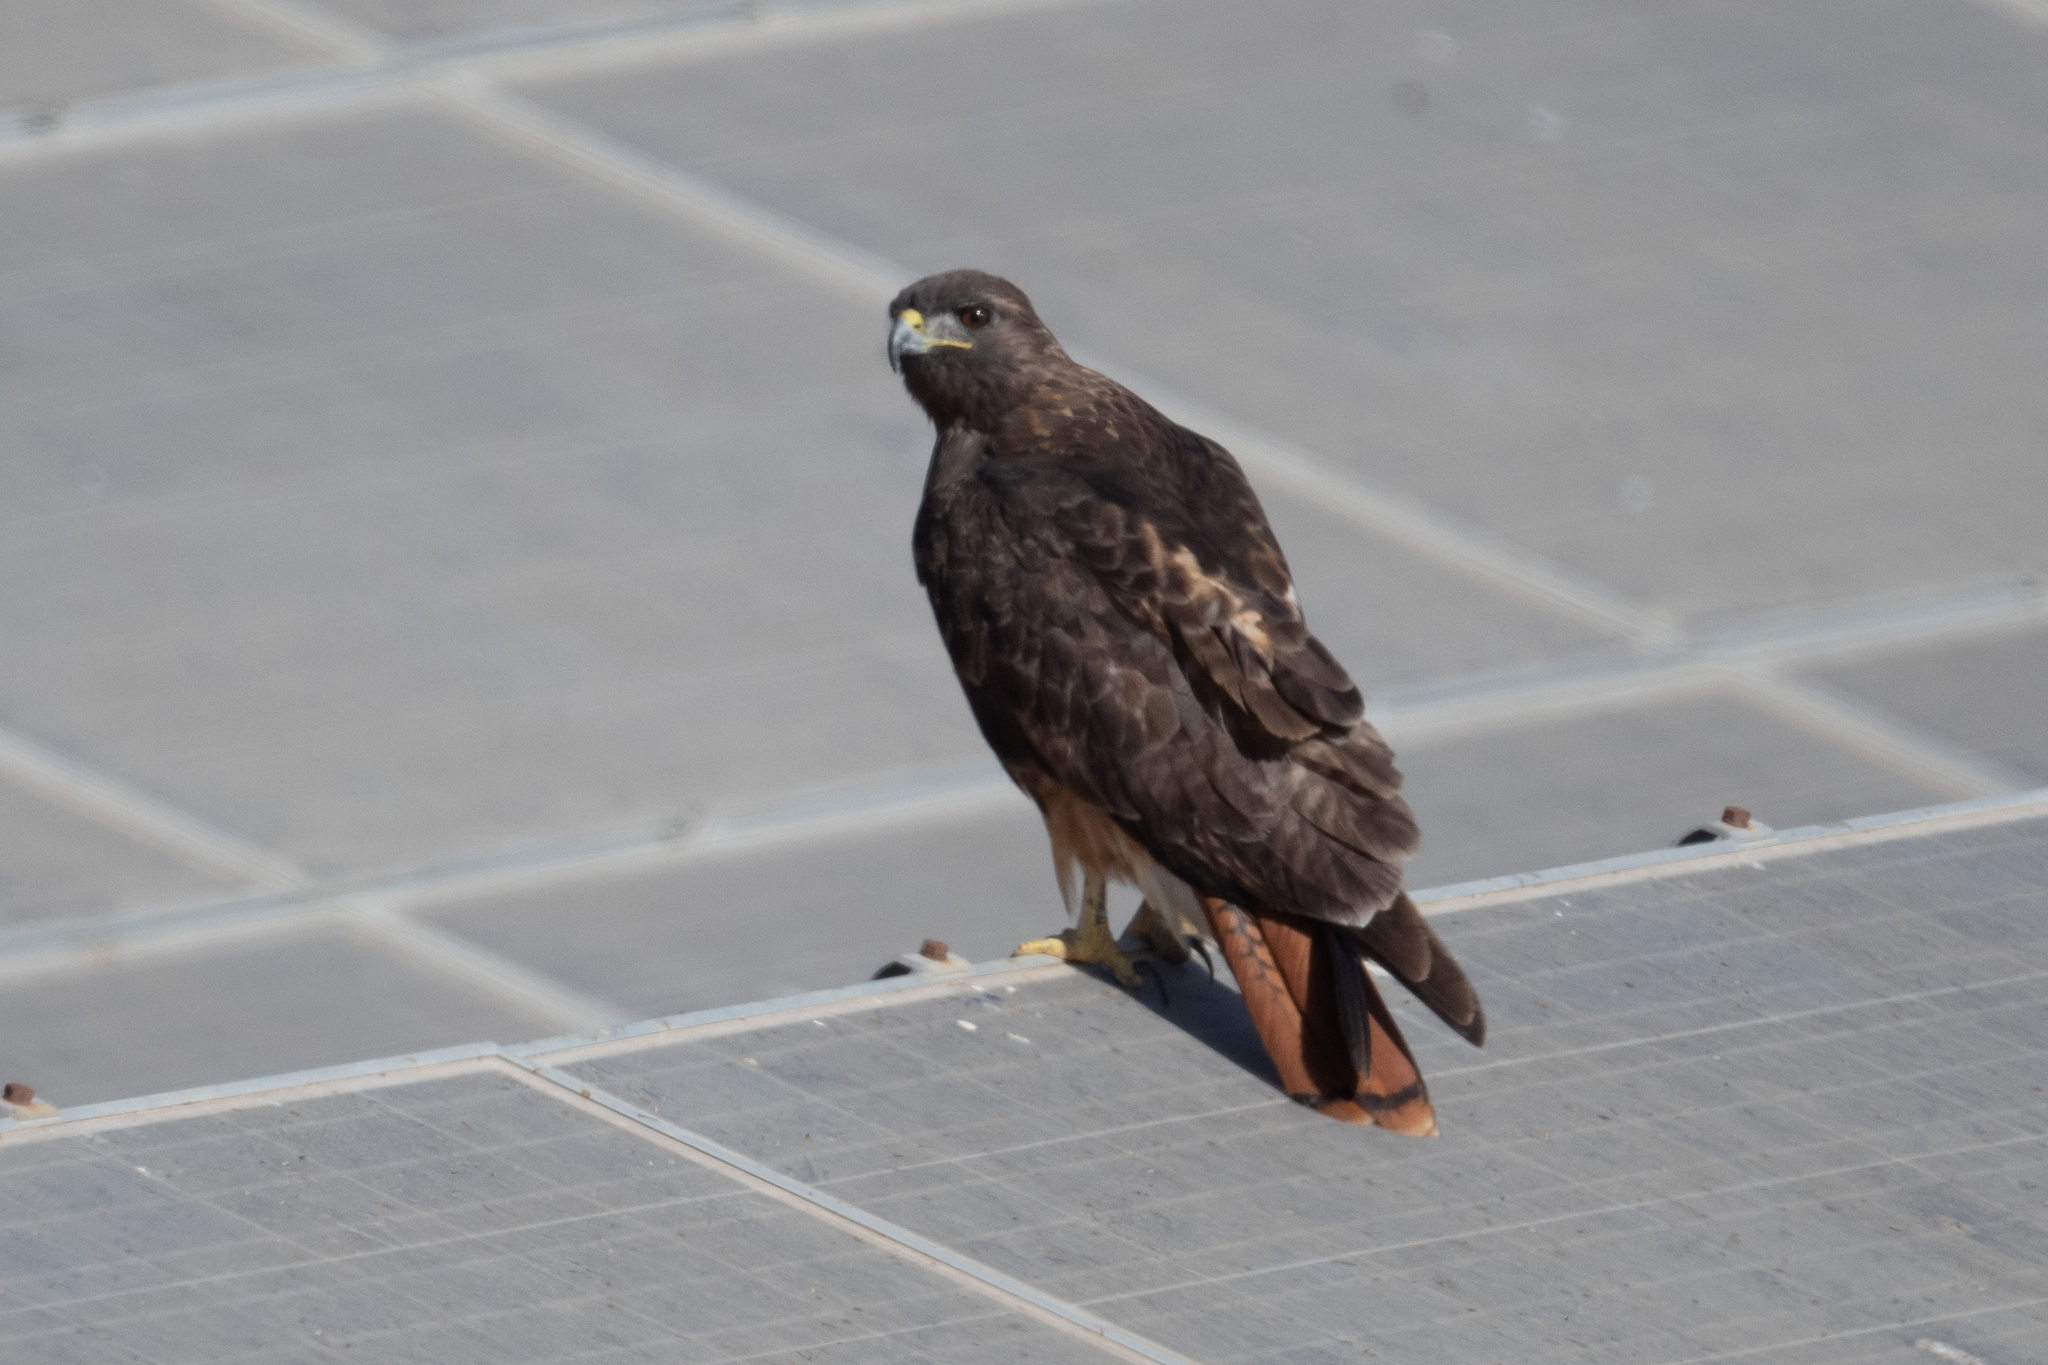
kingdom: Animalia
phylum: Chordata
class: Aves
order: Accipitriformes
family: Accipitridae
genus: Buteo
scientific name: Buteo jamaicensis
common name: Red-tailed hawk
